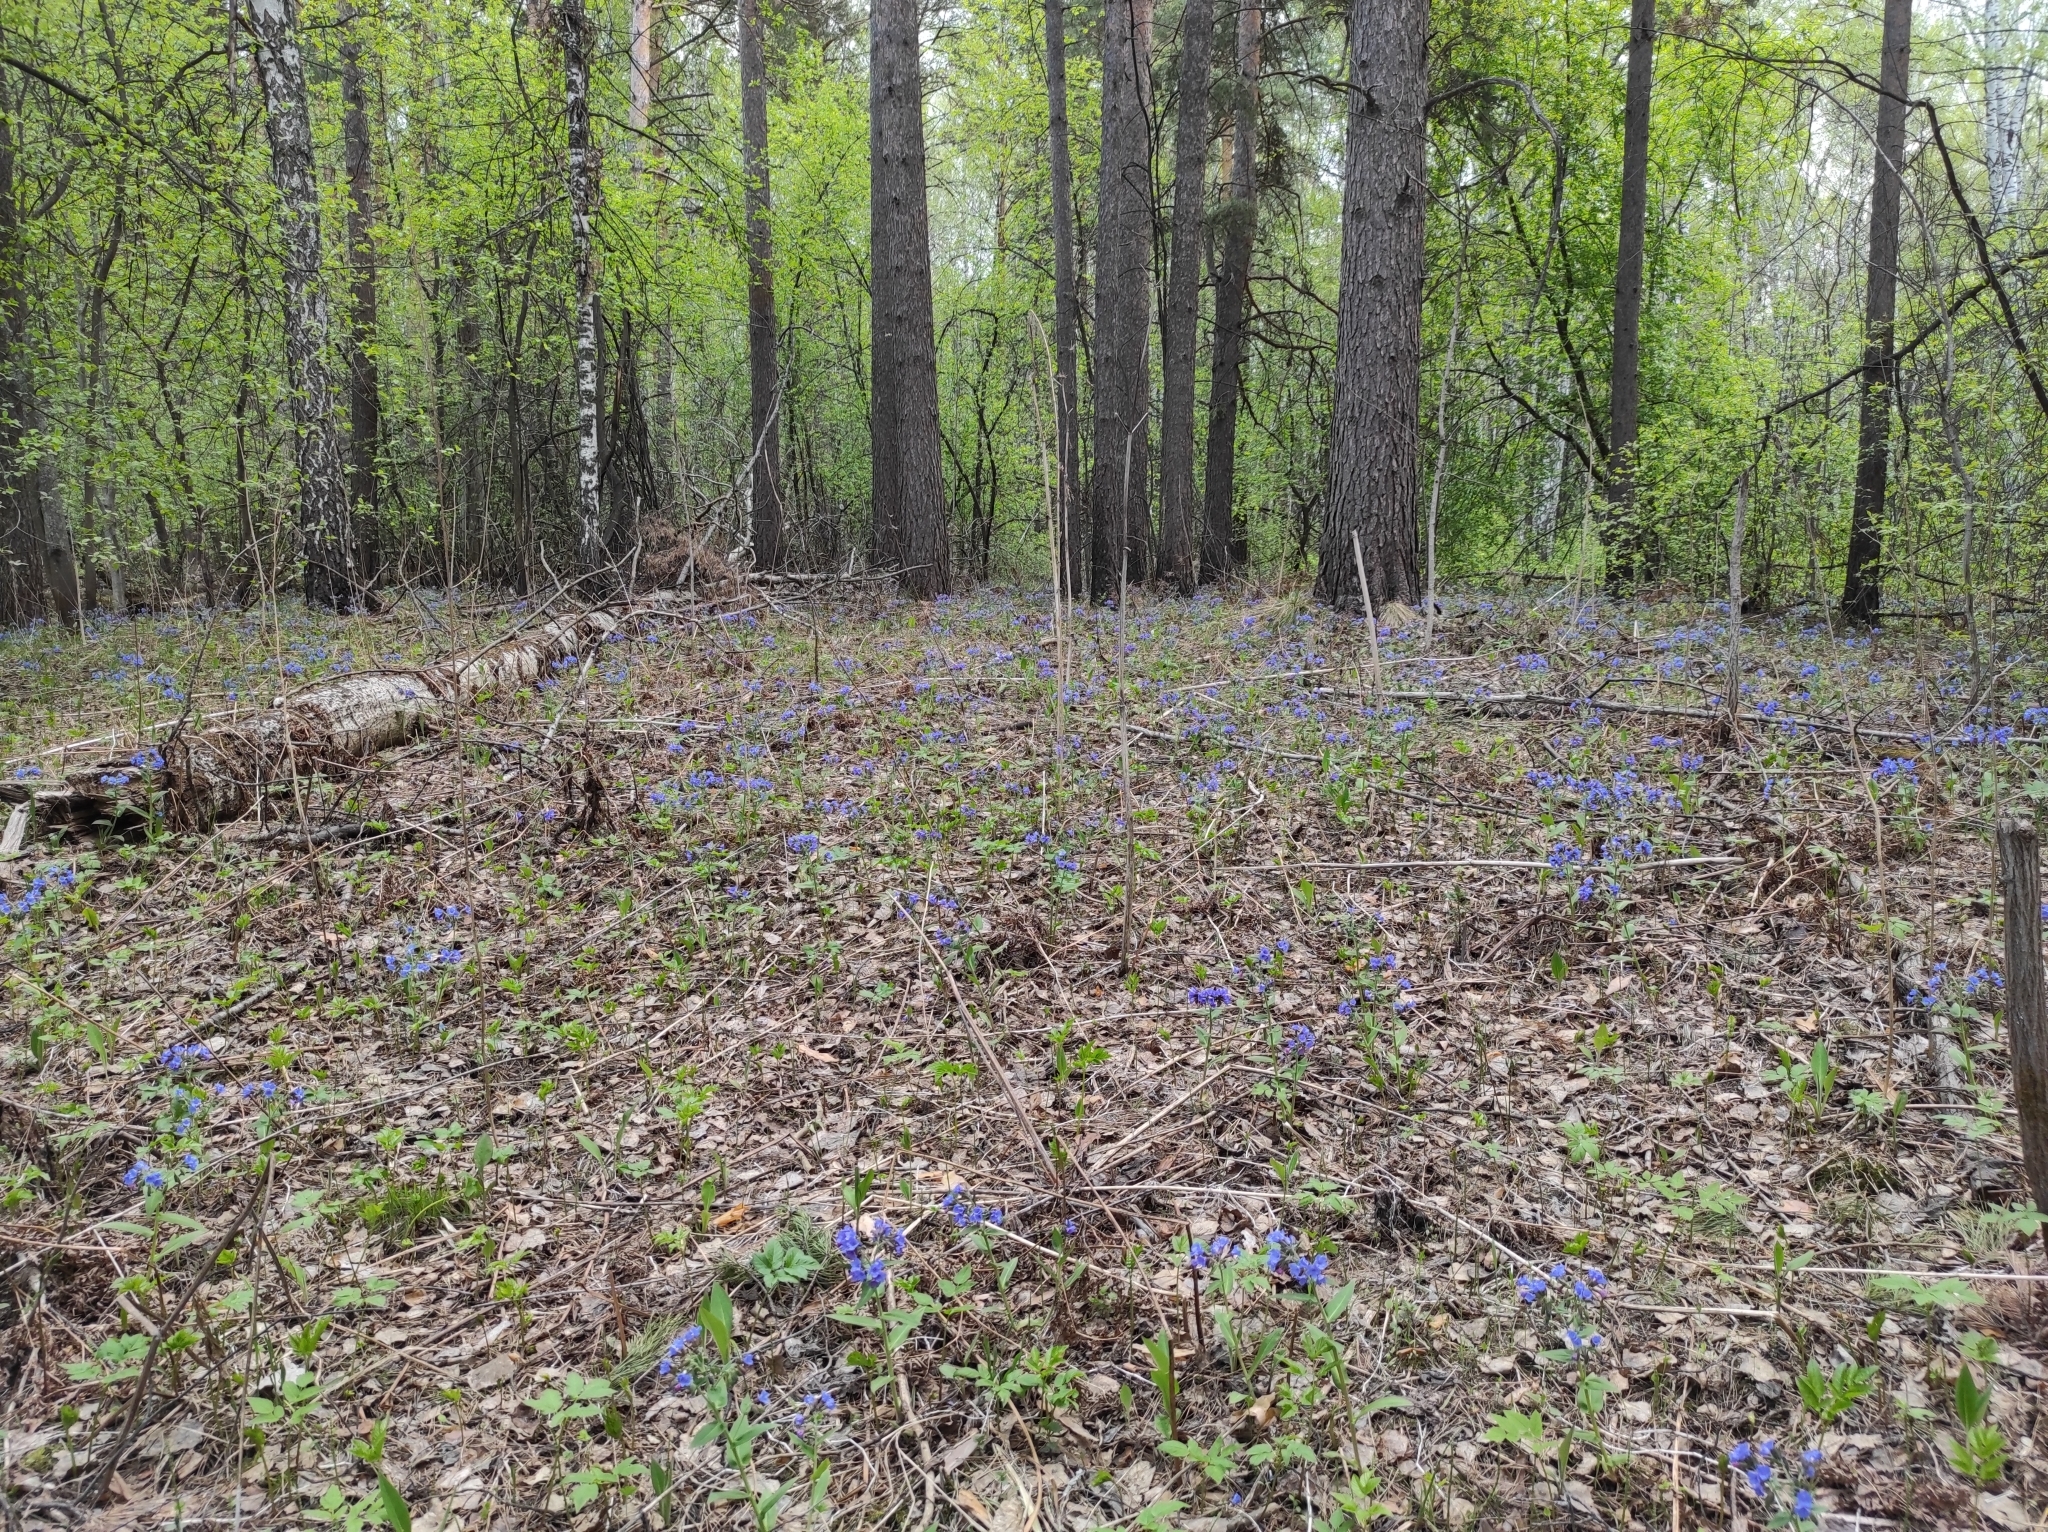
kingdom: Plantae
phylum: Tracheophyta
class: Magnoliopsida
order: Boraginales
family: Boraginaceae
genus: Pulmonaria
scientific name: Pulmonaria mollis
